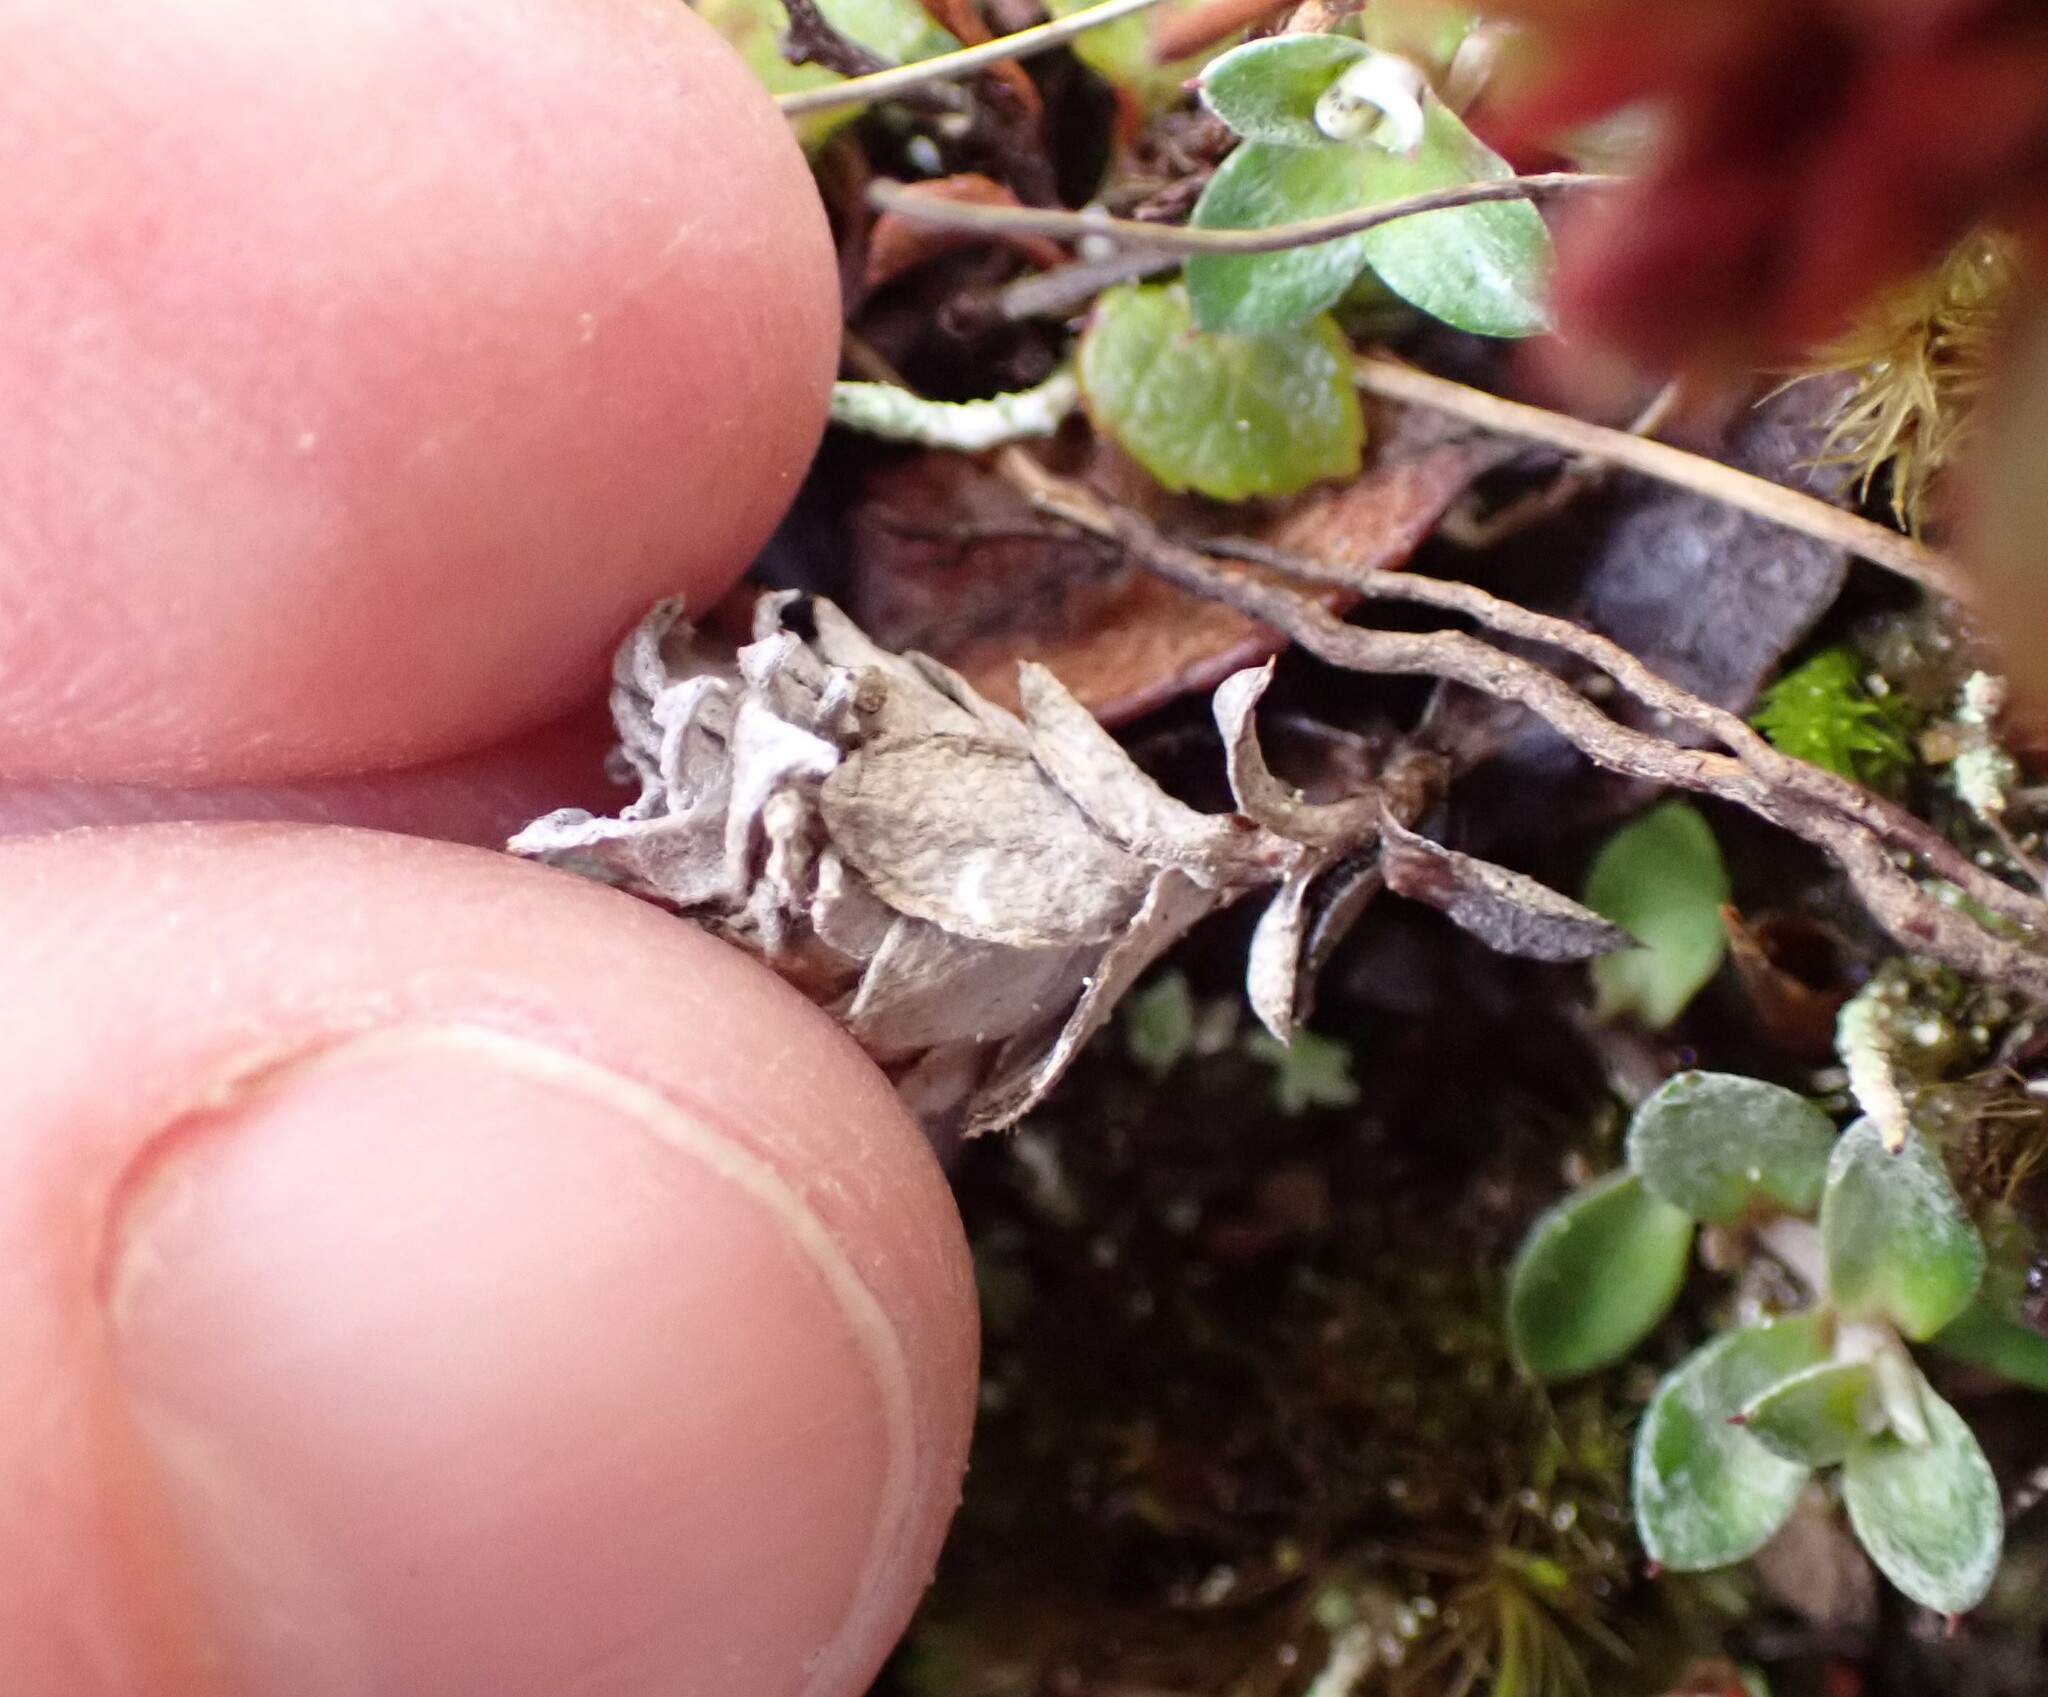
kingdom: Plantae
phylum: Tracheophyta
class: Magnoliopsida
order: Asterales
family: Asteraceae
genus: Anaphalioides
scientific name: Anaphalioides bellidioides
